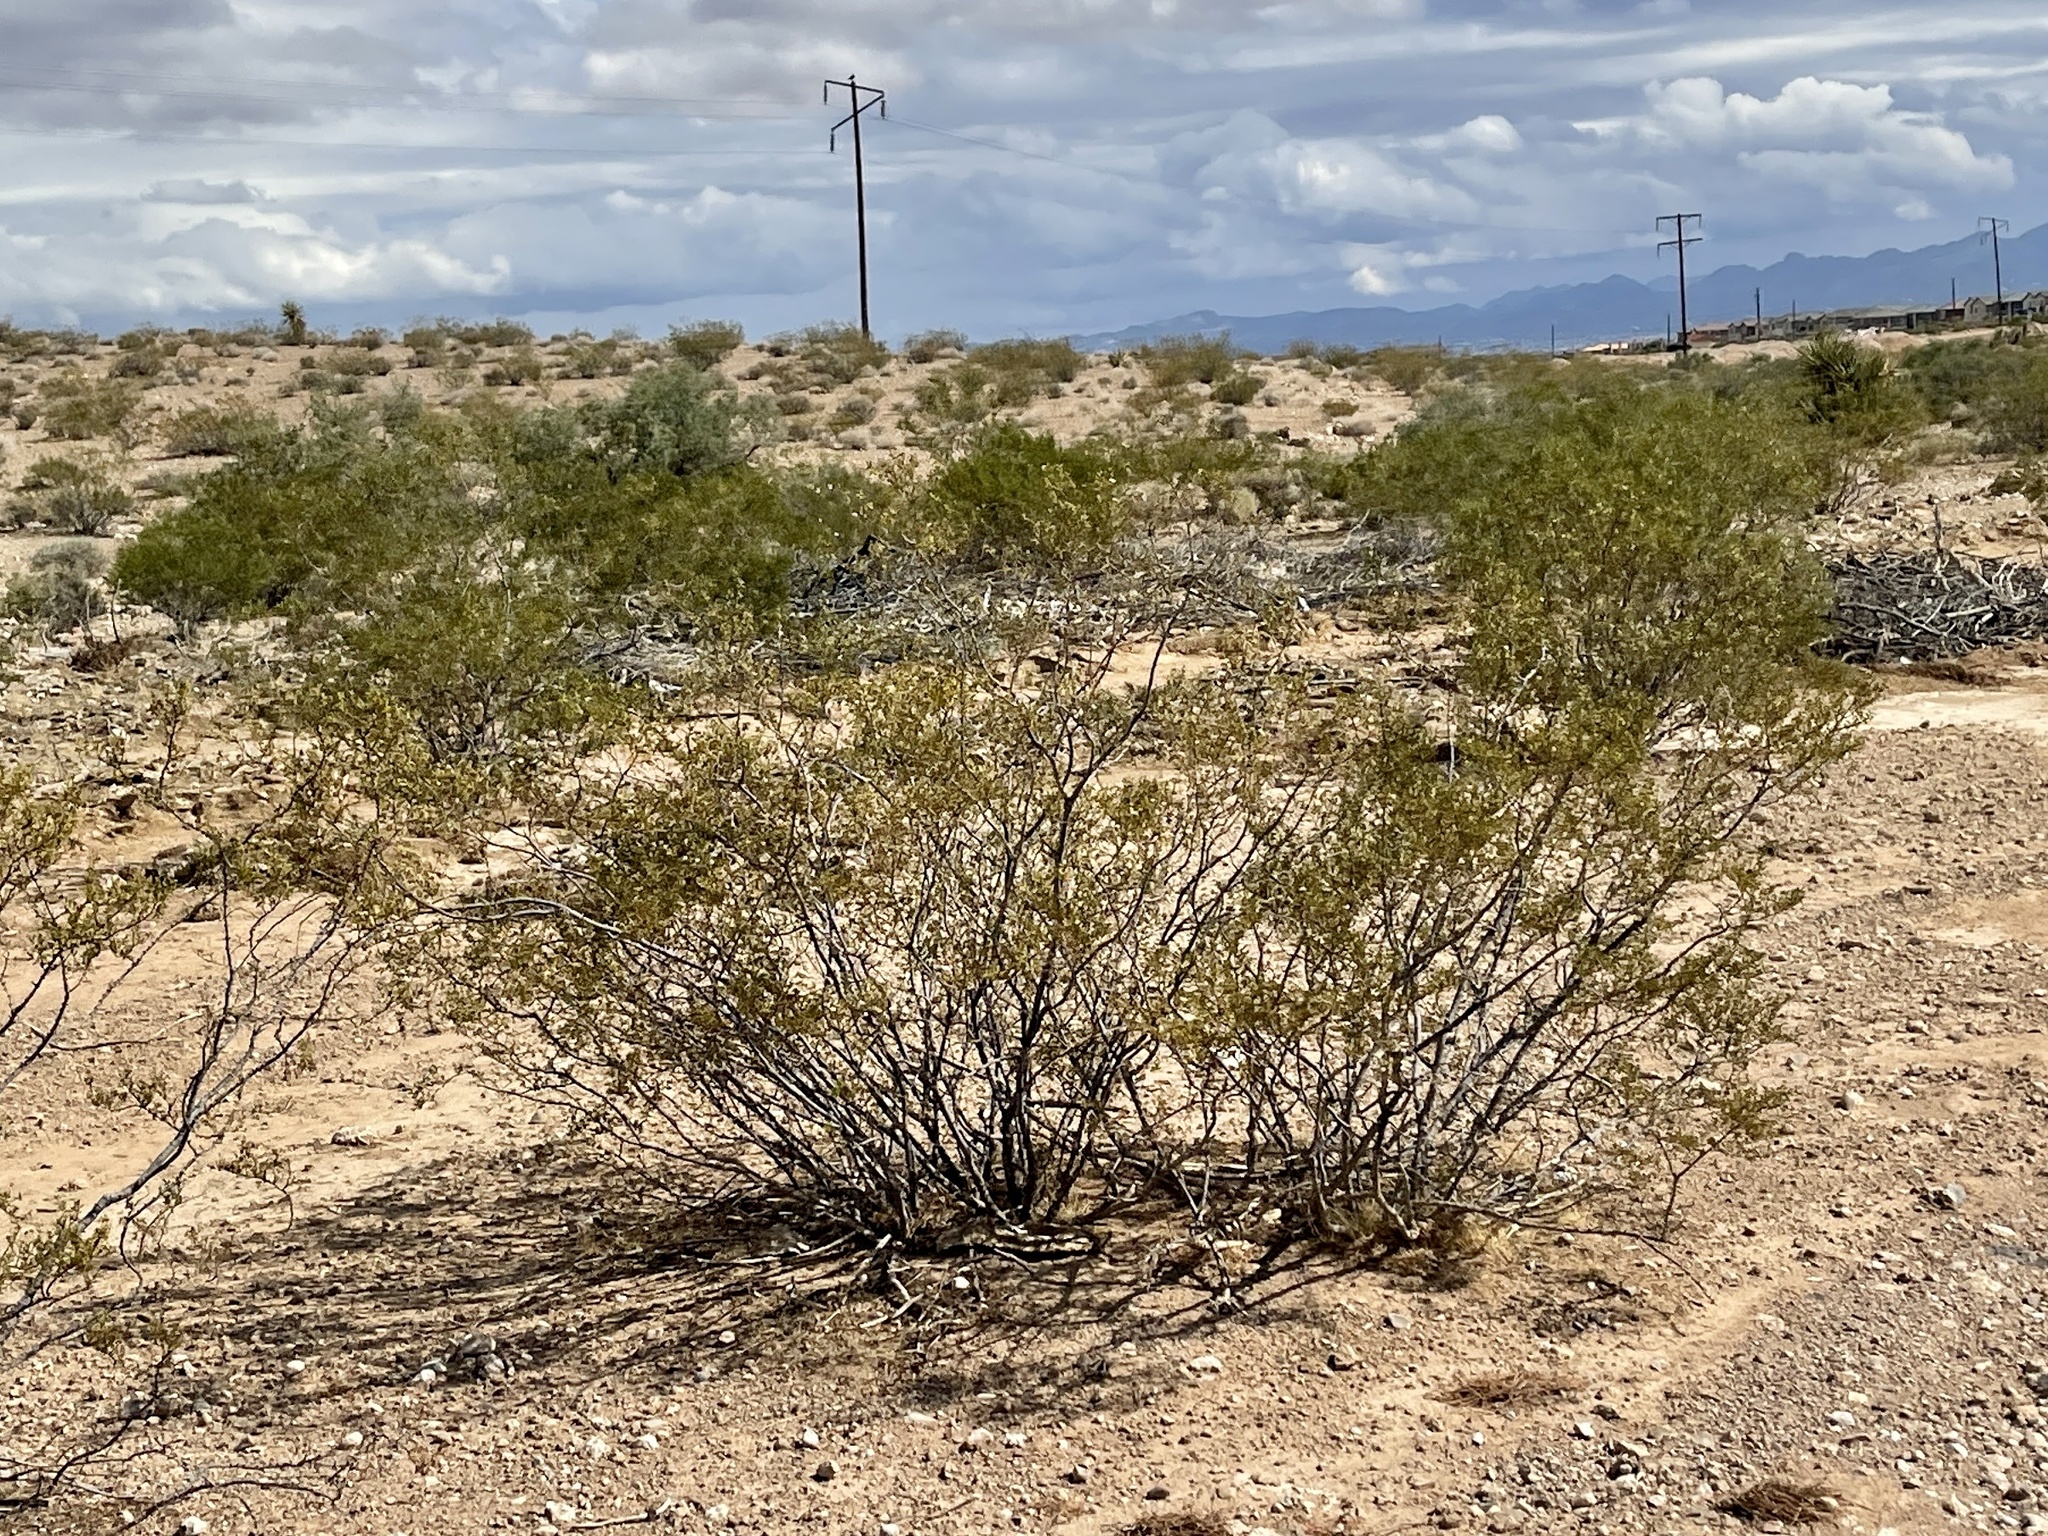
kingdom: Plantae
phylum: Tracheophyta
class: Magnoliopsida
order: Zygophyllales
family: Zygophyllaceae
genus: Larrea
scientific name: Larrea tridentata
